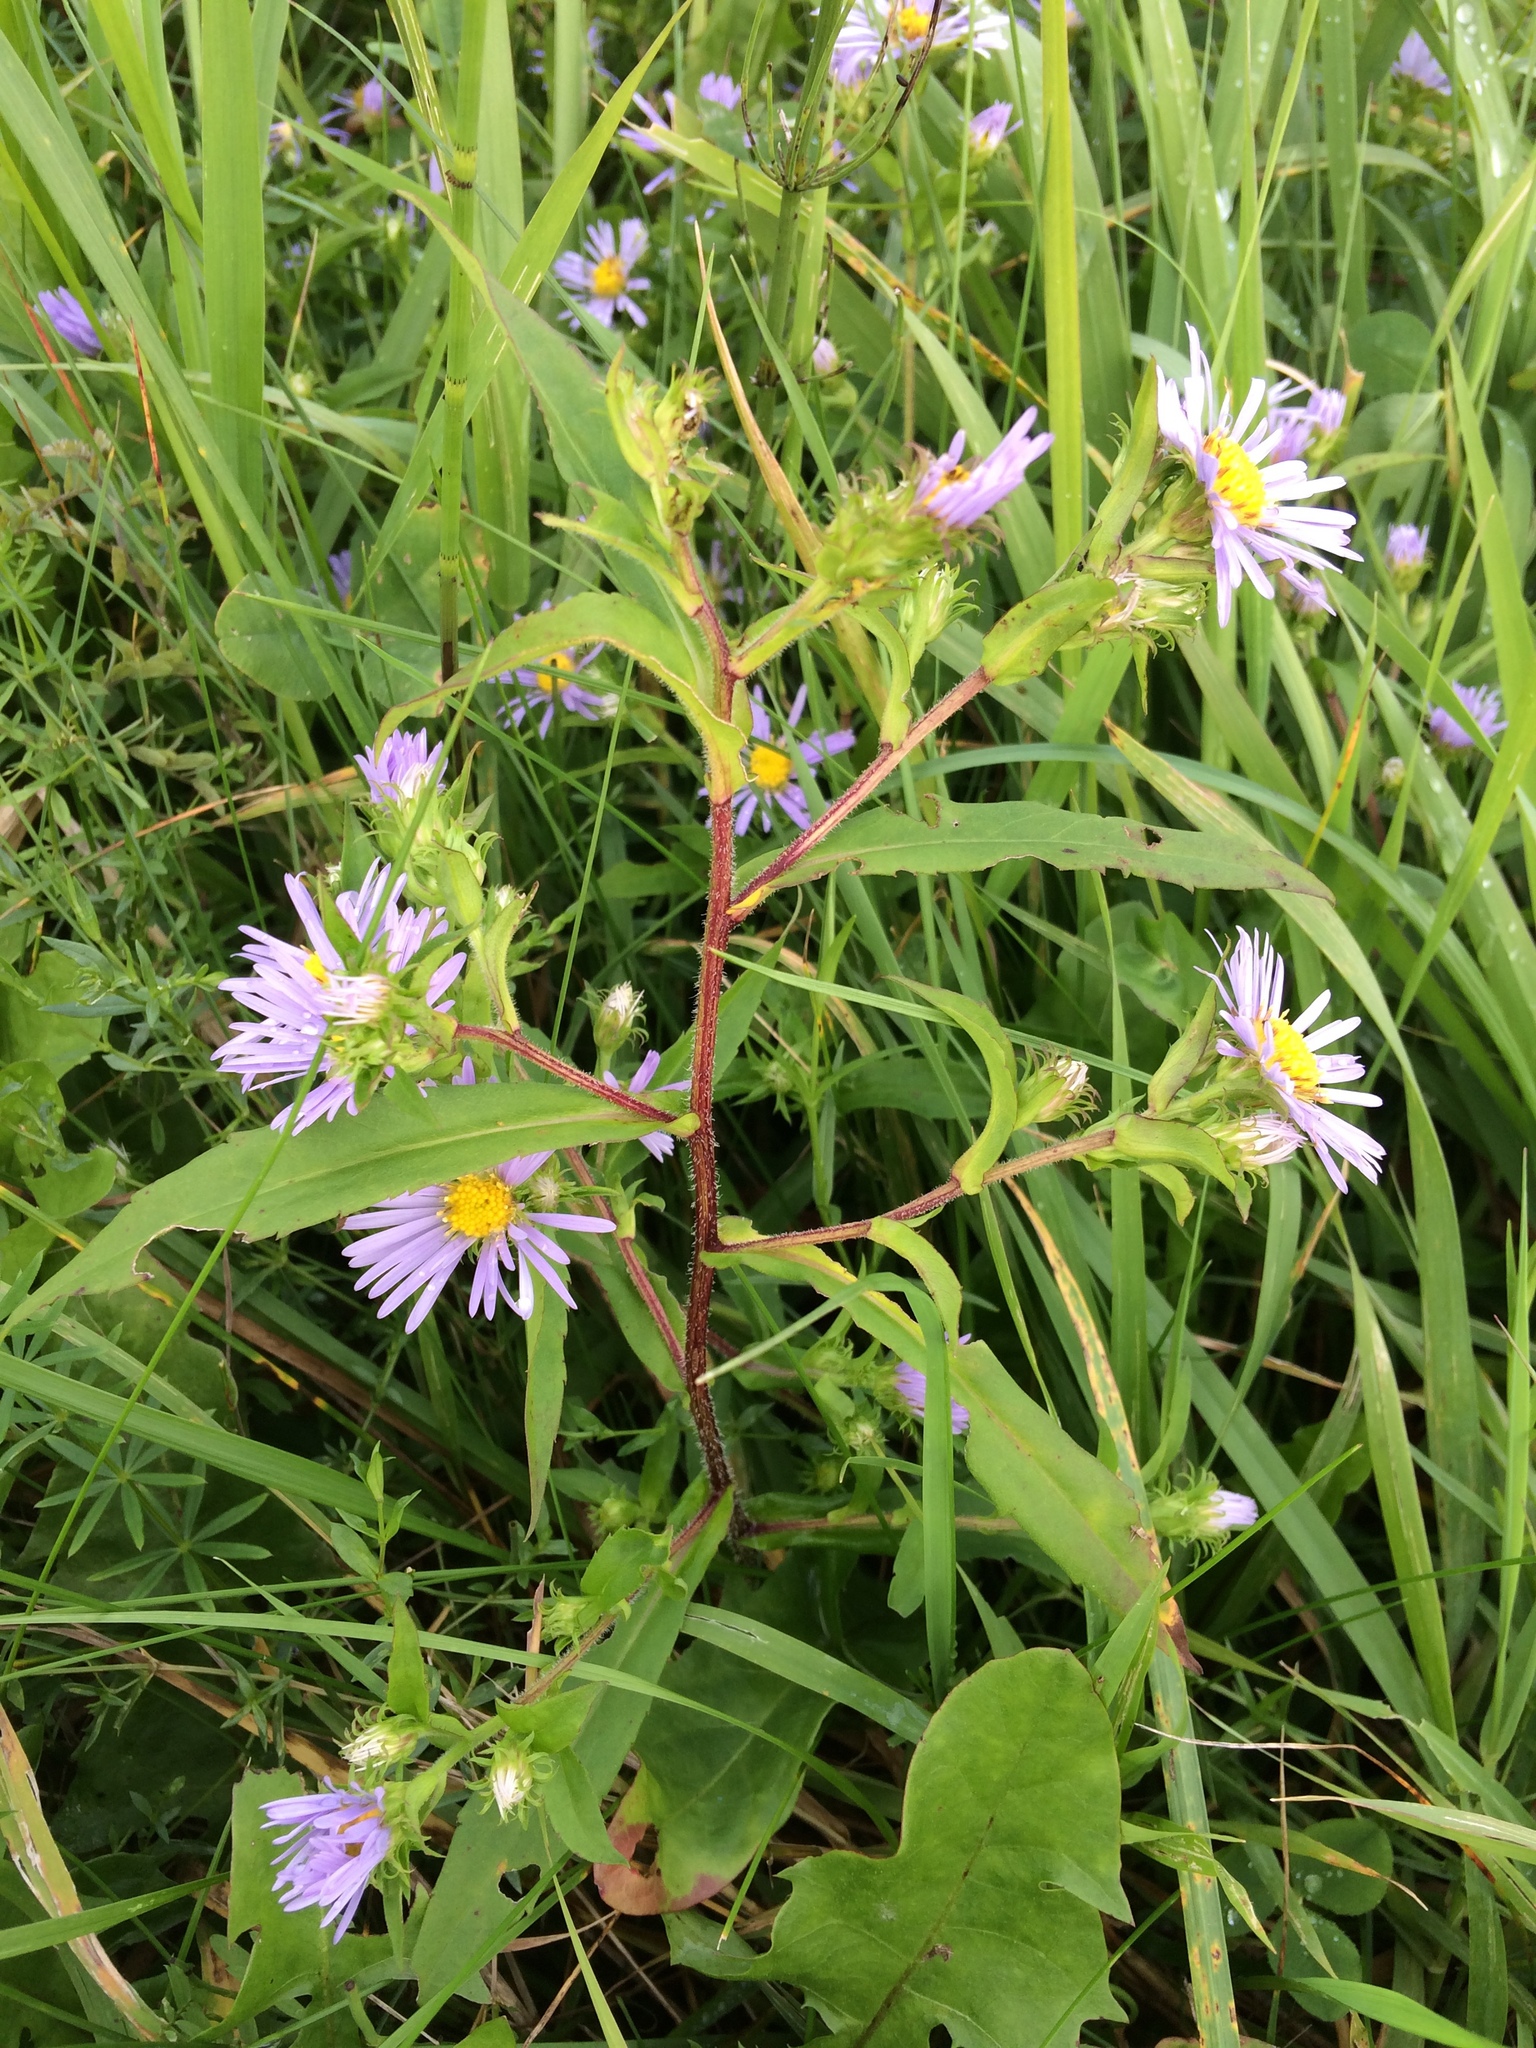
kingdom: Plantae
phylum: Tracheophyta
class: Magnoliopsida
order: Asterales
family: Asteraceae
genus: Symphyotrichum
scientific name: Symphyotrichum puniceum
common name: Bog aster
